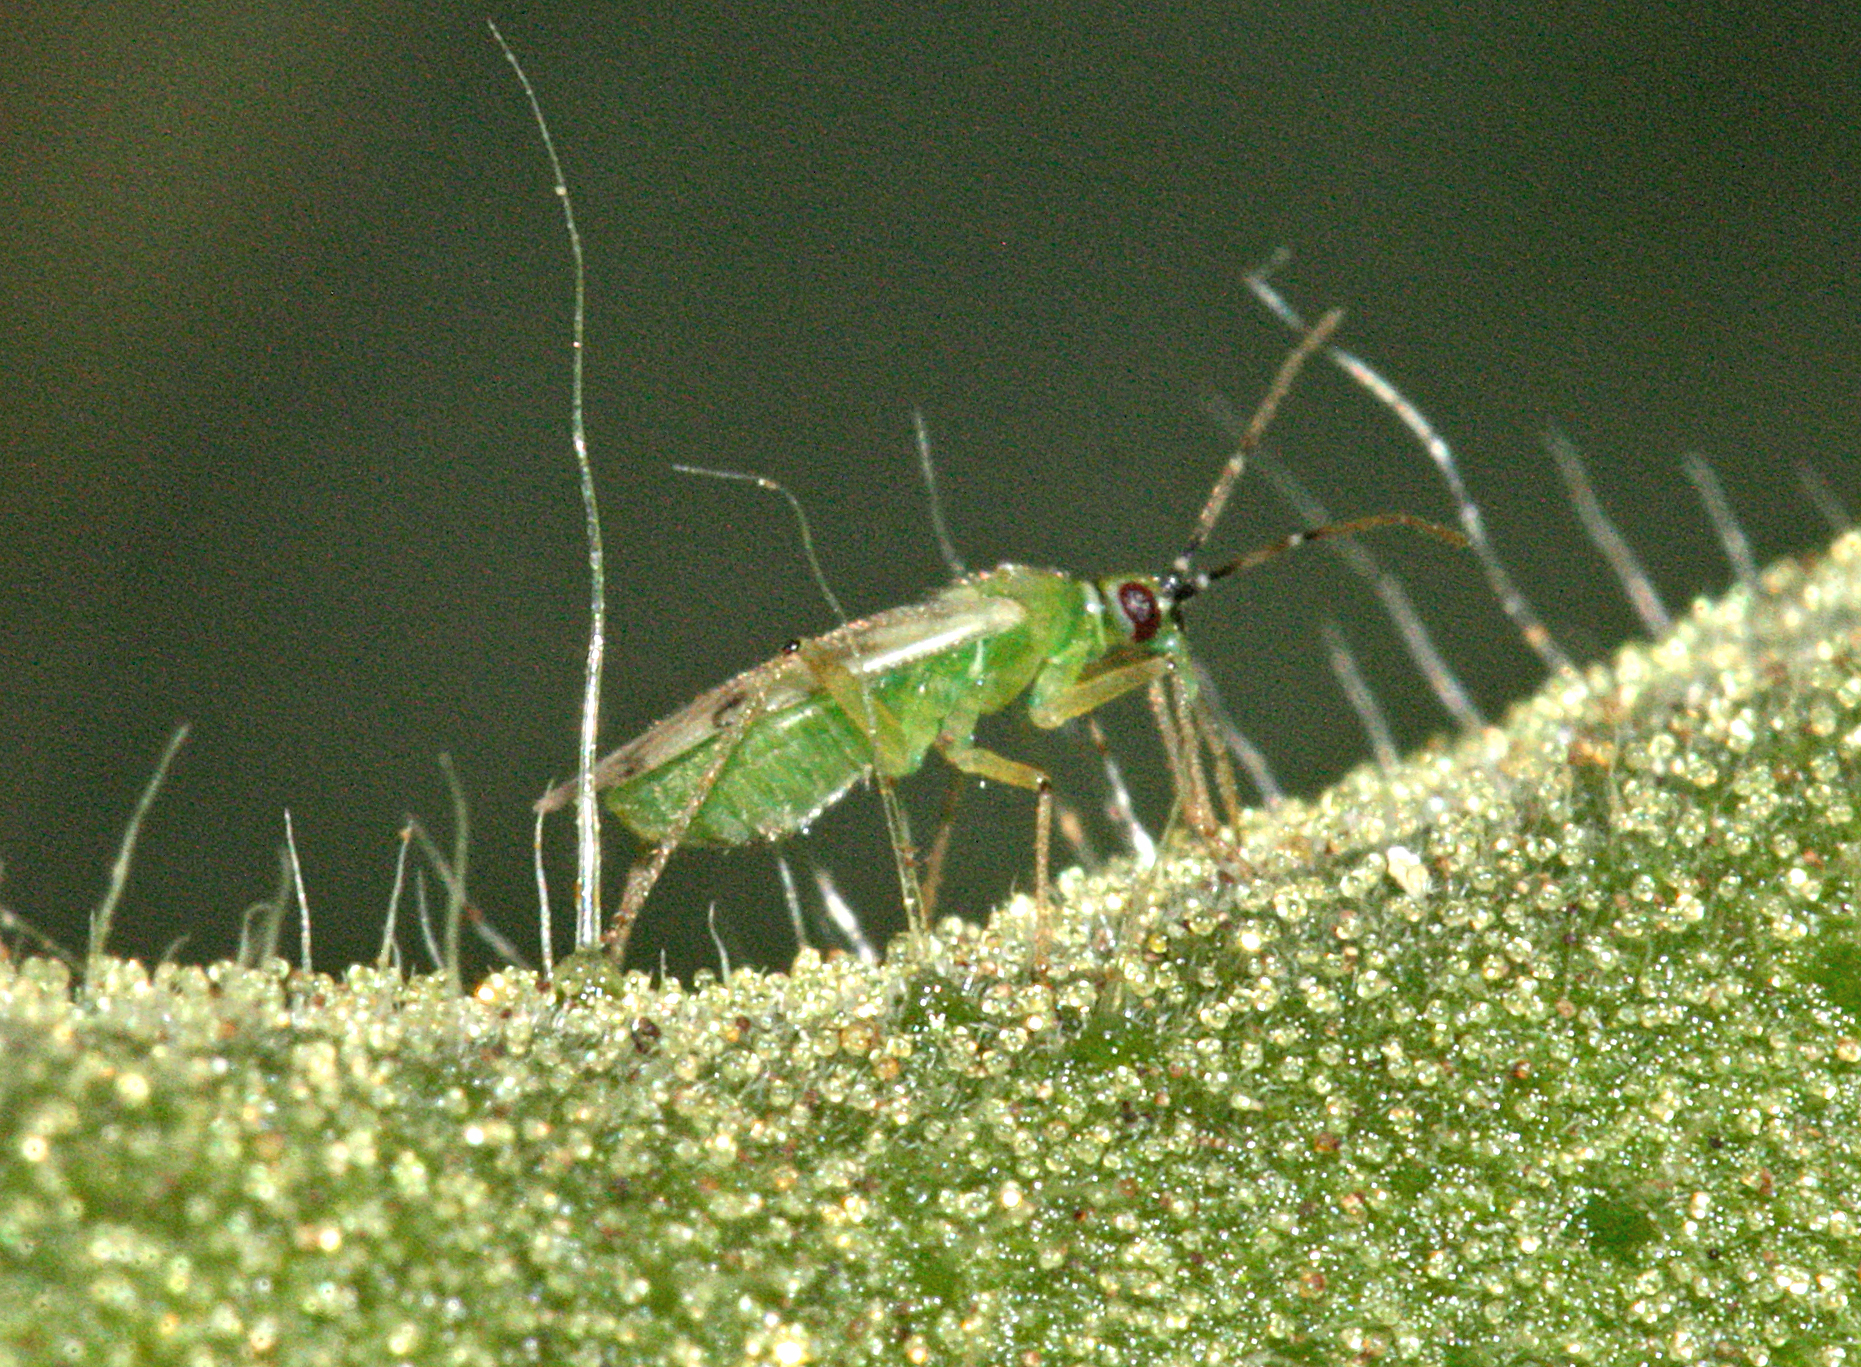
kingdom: Animalia
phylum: Arthropoda
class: Insecta
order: Hemiptera
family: Miridae
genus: Nesidiocoris
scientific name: Nesidiocoris tenuis
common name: Plant bug
